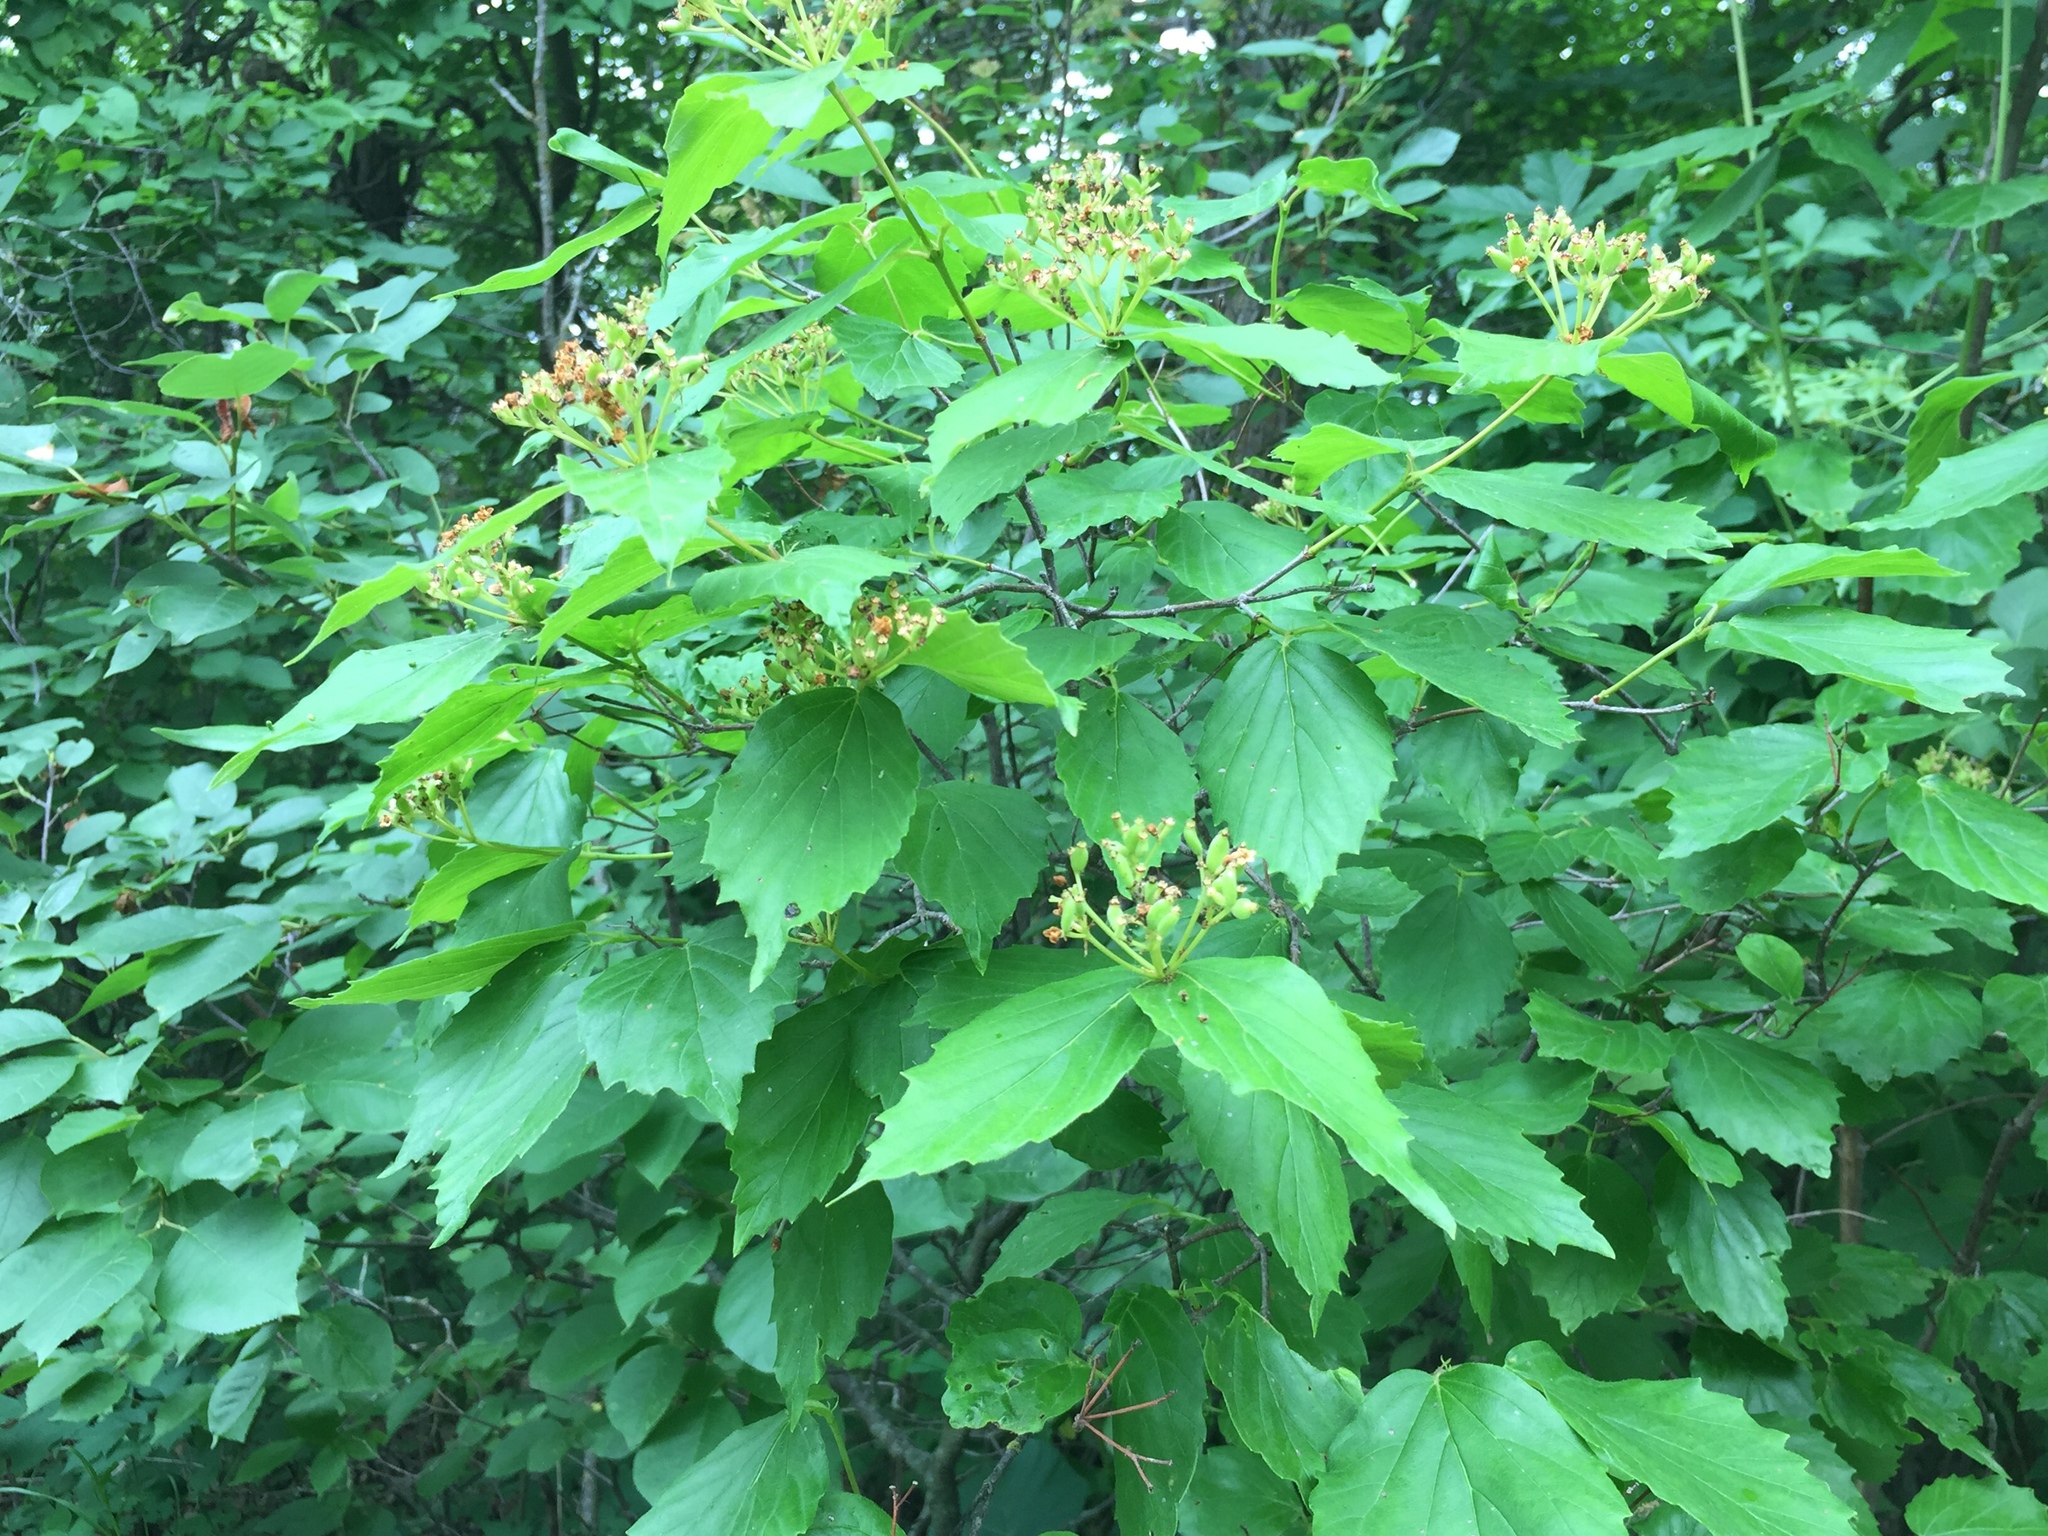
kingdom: Plantae
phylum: Tracheophyta
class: Magnoliopsida
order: Dipsacales
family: Viburnaceae
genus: Viburnum
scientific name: Viburnum rafinesqueanum
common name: Downy arrow-wood
